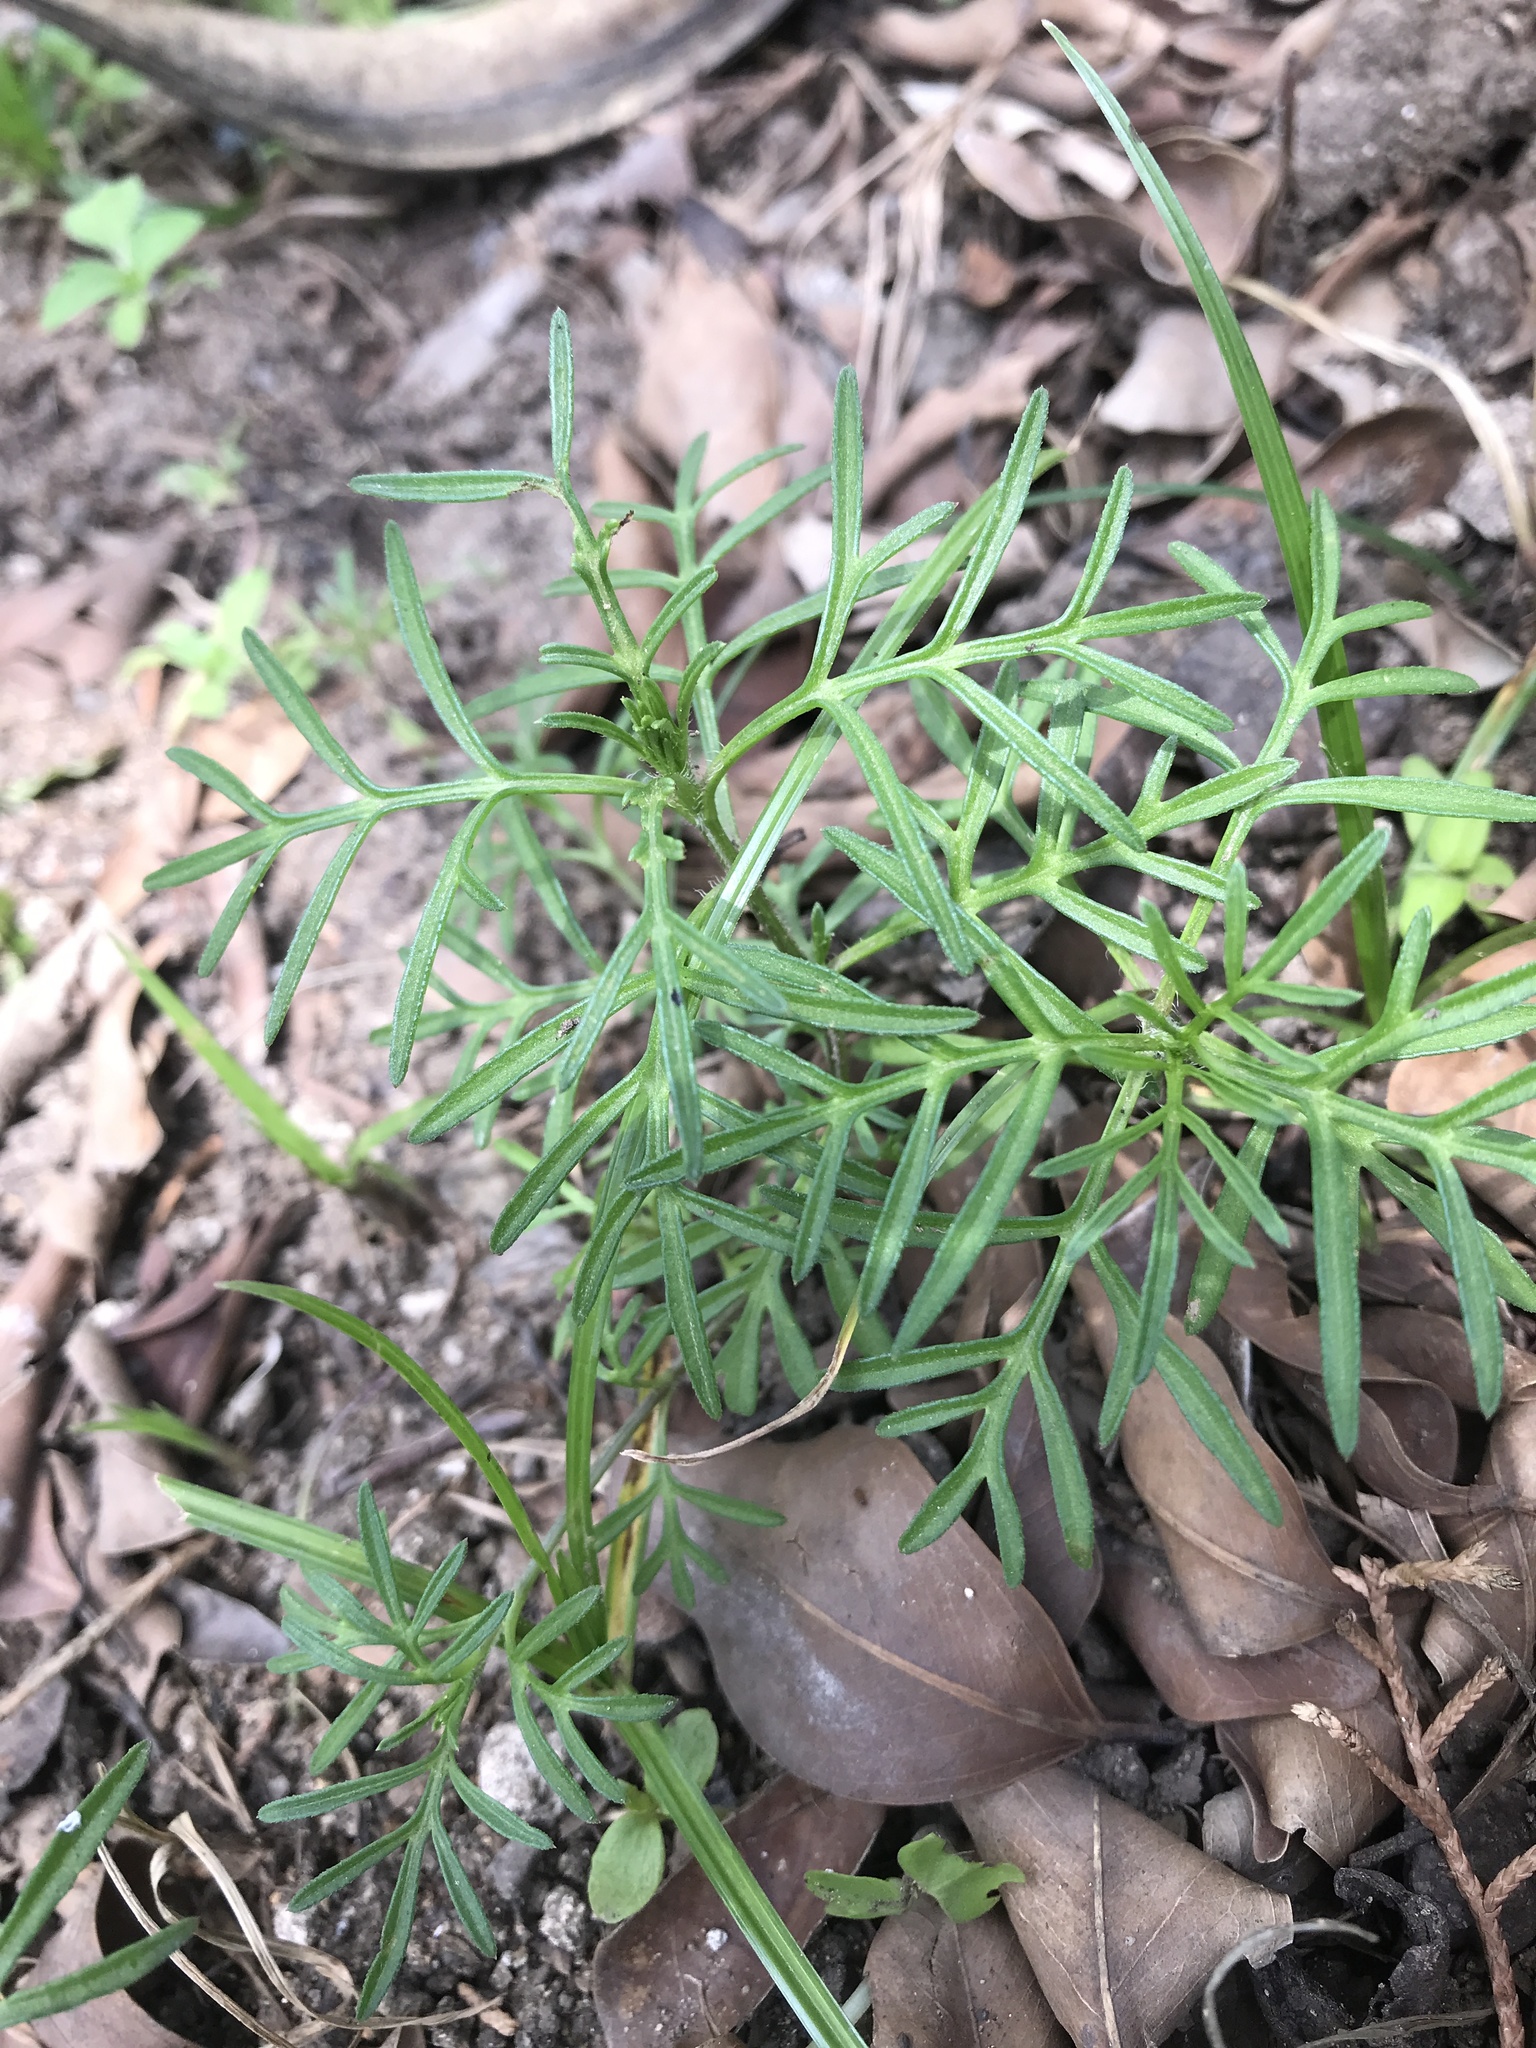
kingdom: Plantae
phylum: Tracheophyta
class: Magnoliopsida
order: Asterales
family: Asteraceae
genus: Cosmos
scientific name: Cosmos bipinnatus
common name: Garden cosmos
